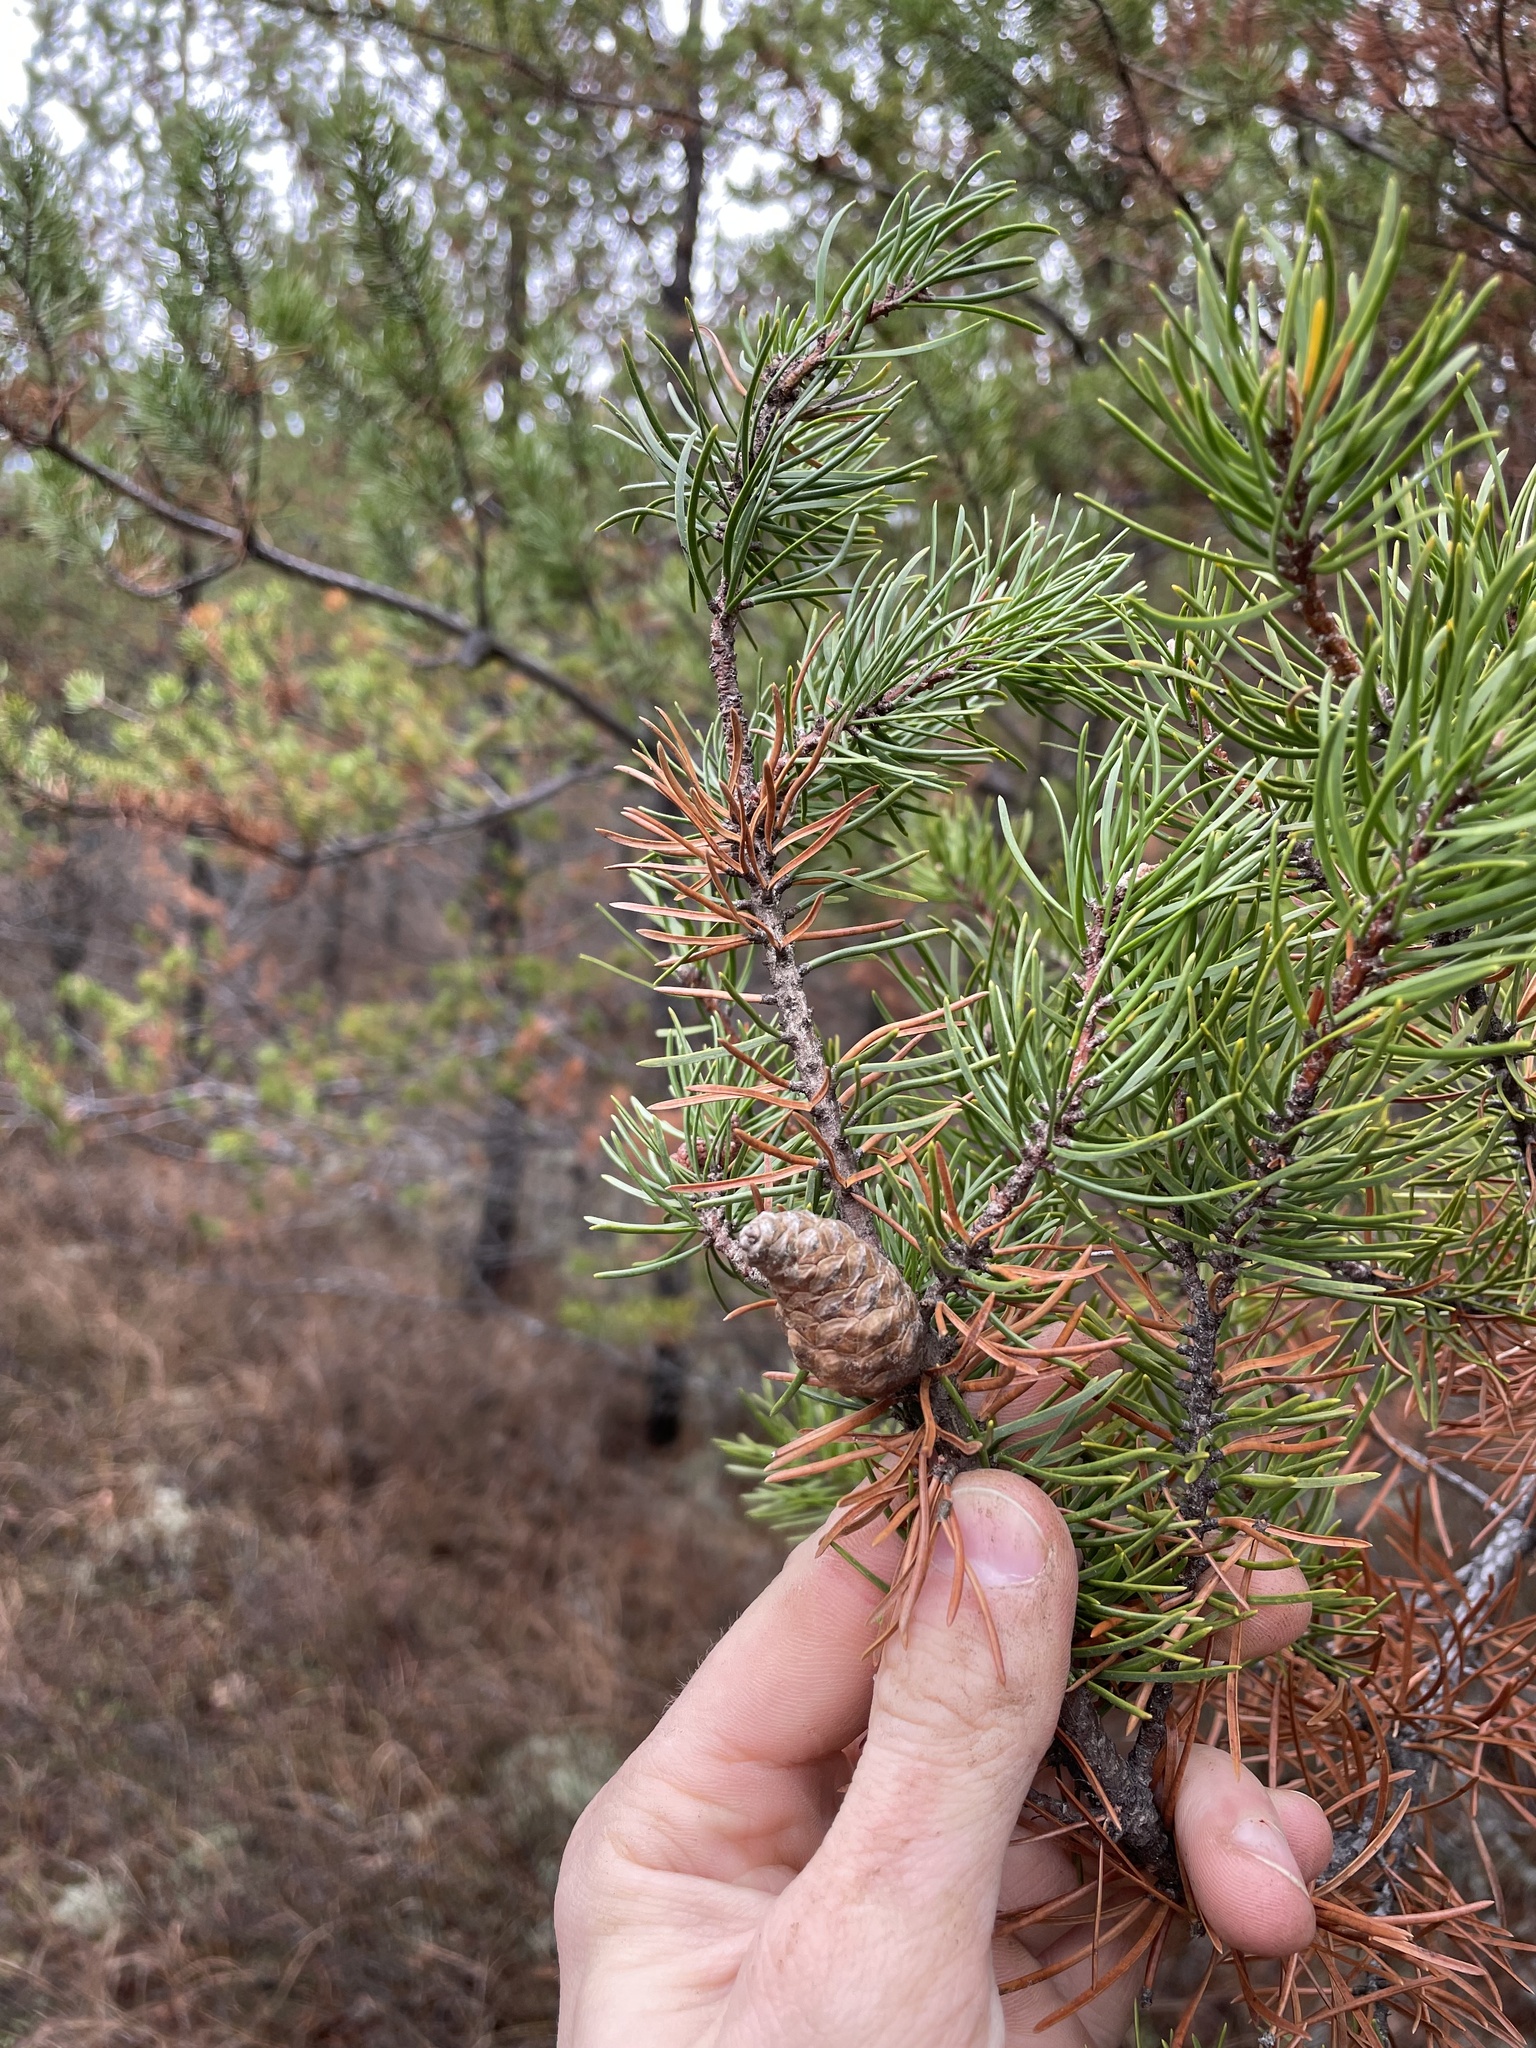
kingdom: Plantae
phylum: Tracheophyta
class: Pinopsida
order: Pinales
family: Pinaceae
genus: Pinus
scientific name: Pinus banksiana
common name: Jack pine
